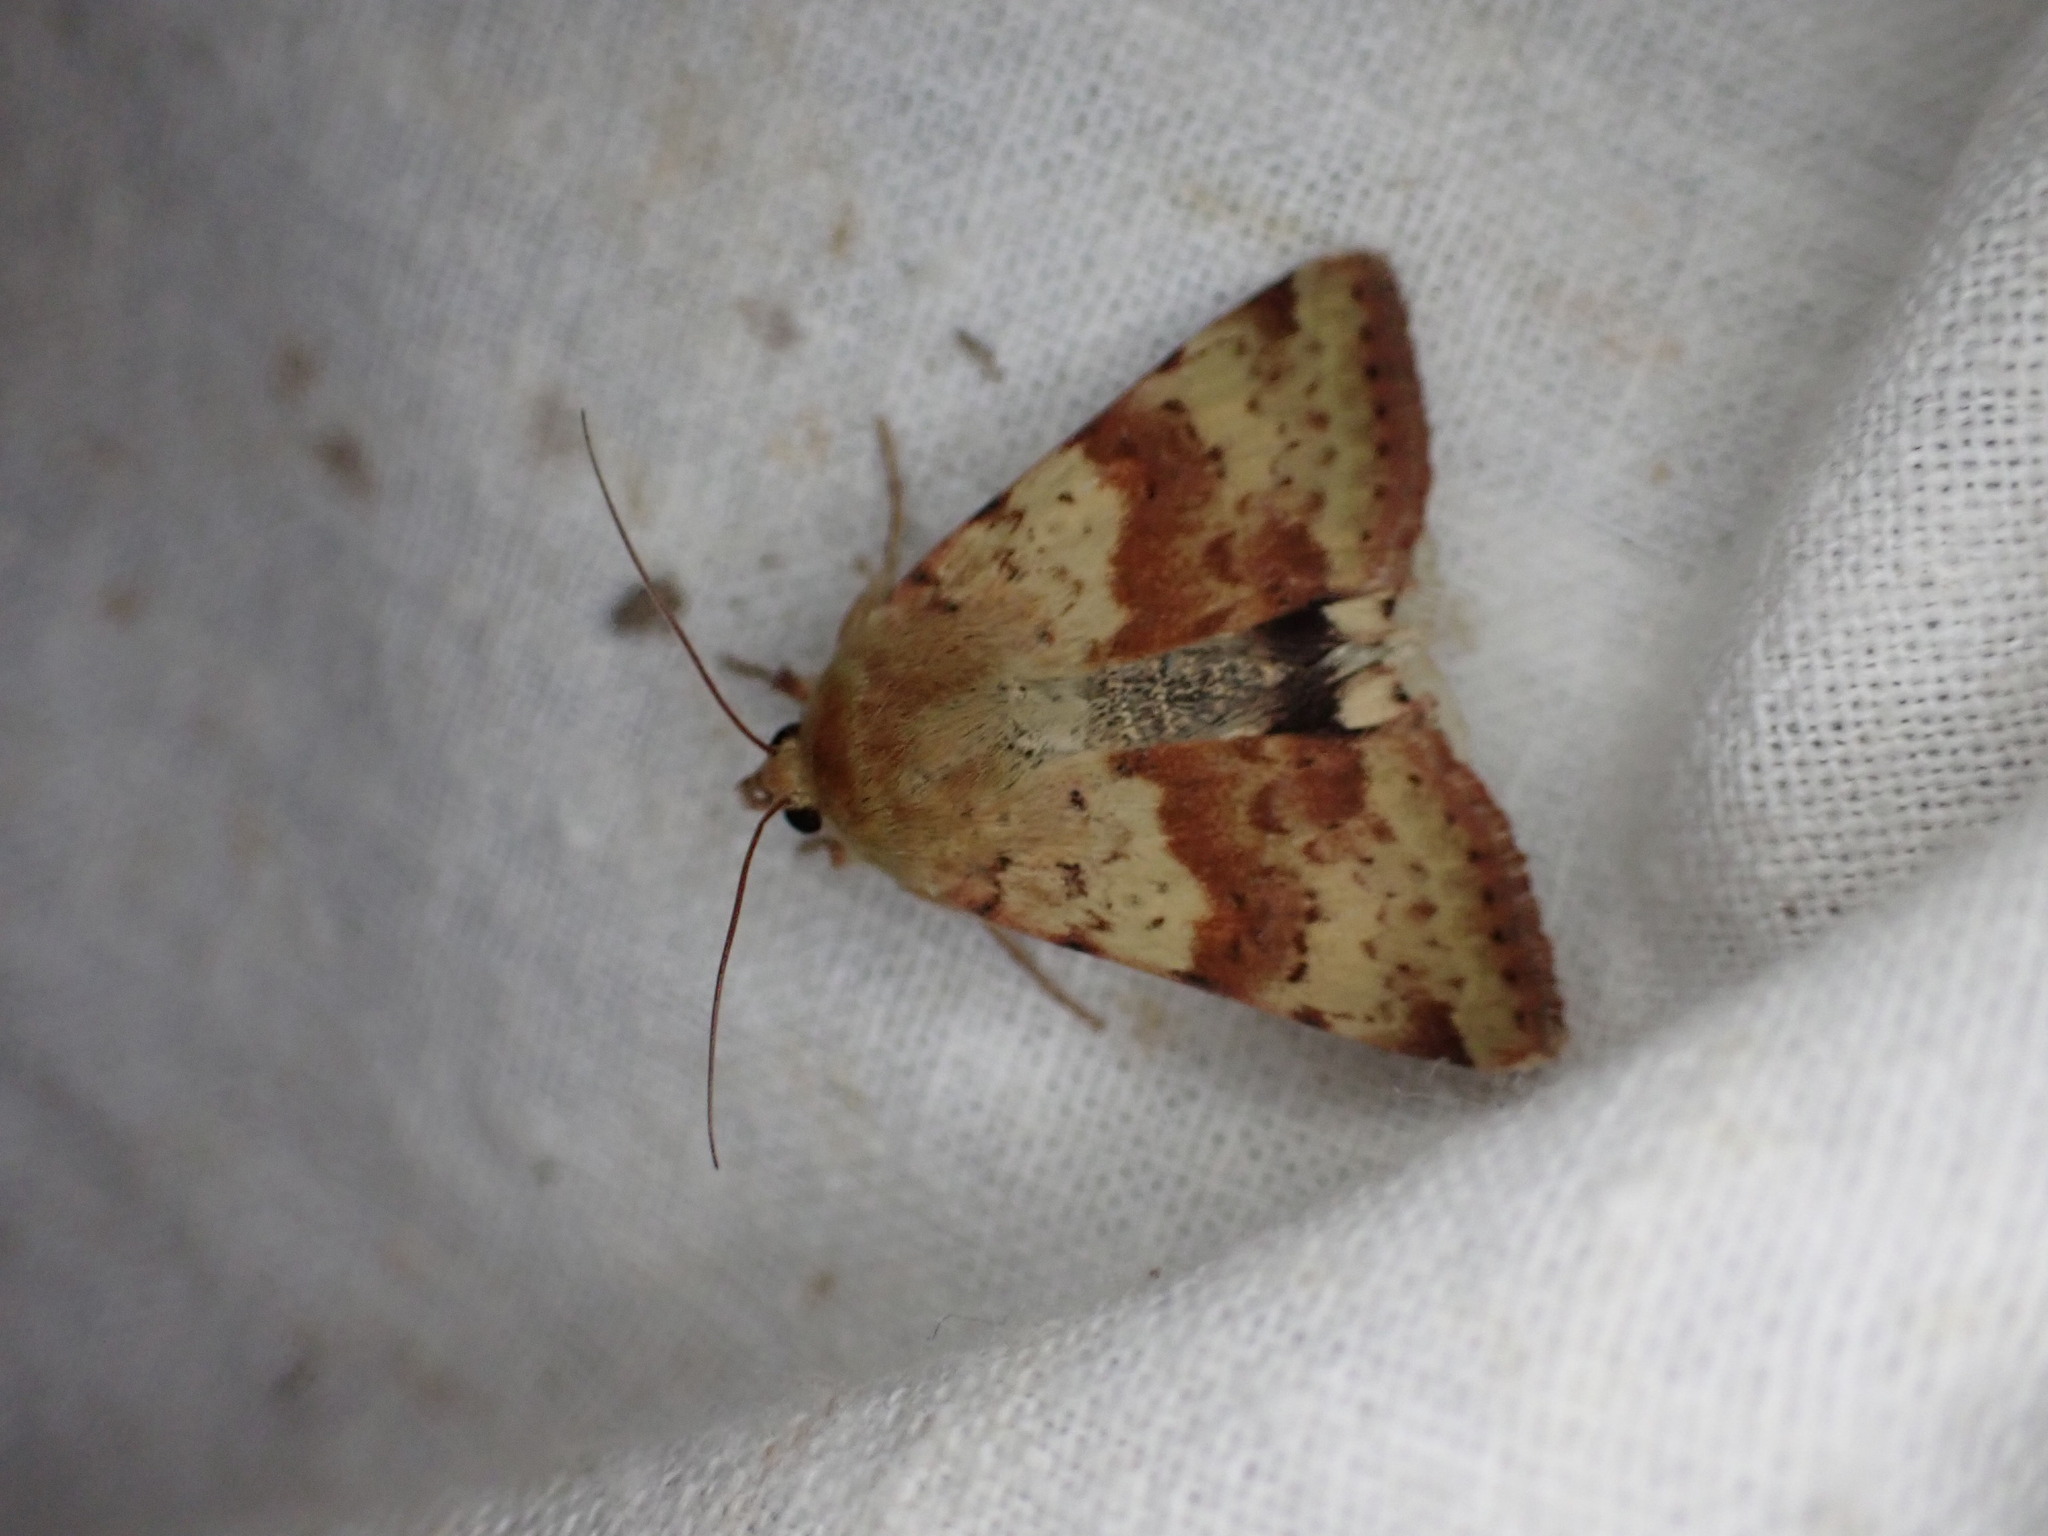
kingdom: Animalia
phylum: Arthropoda
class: Insecta
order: Lepidoptera
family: Noctuidae
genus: Heliothis
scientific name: Heliothis viriplaca
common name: Marbled clover
